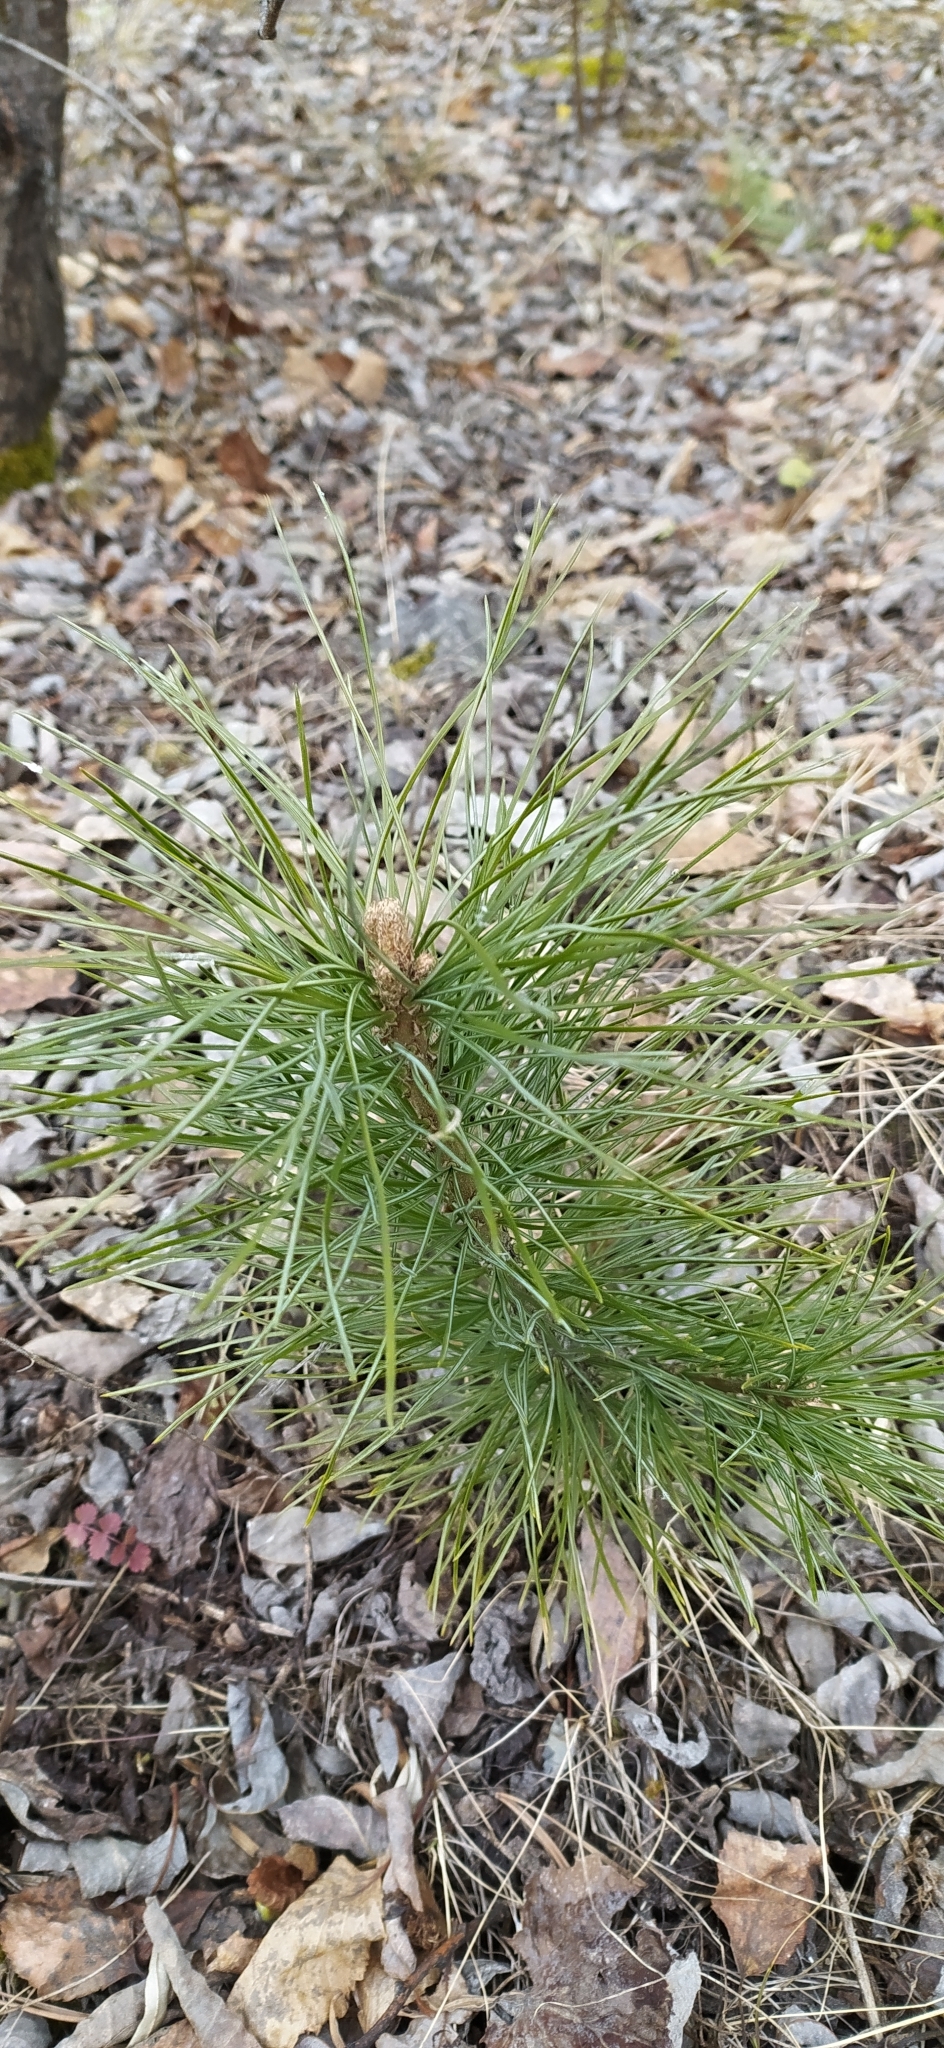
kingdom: Plantae
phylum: Tracheophyta
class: Pinopsida
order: Pinales
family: Pinaceae
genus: Pinus
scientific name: Pinus sibirica
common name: Siberian pine
